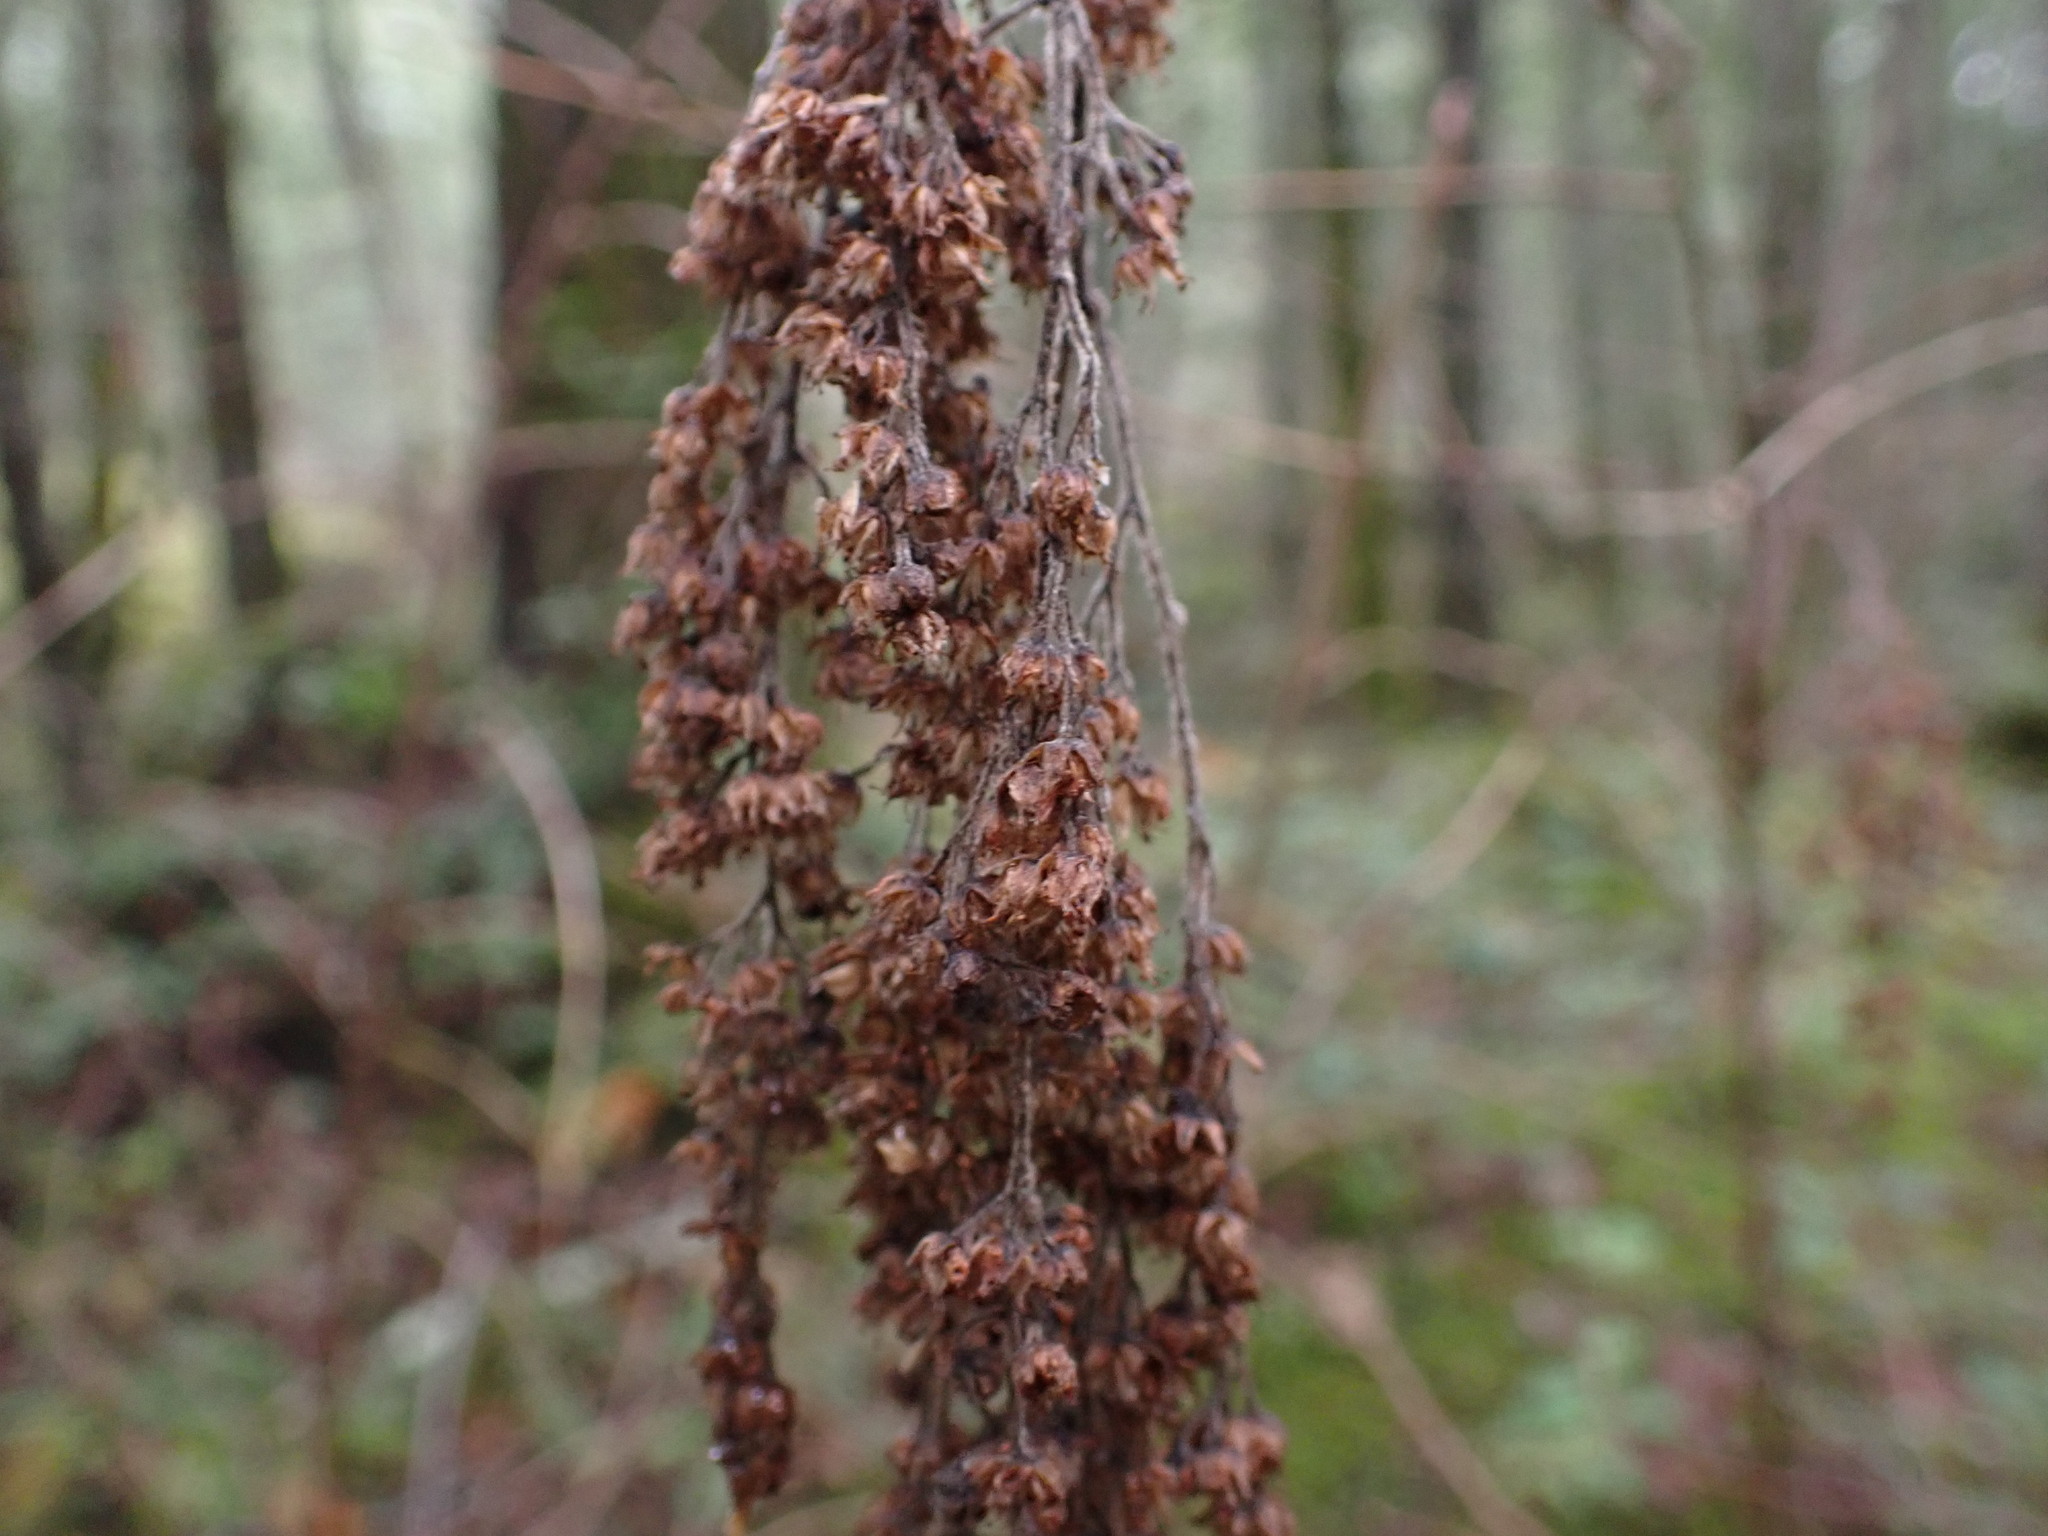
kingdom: Plantae
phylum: Tracheophyta
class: Magnoliopsida
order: Rosales
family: Rosaceae
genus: Holodiscus
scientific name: Holodiscus discolor
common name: Oceanspray
